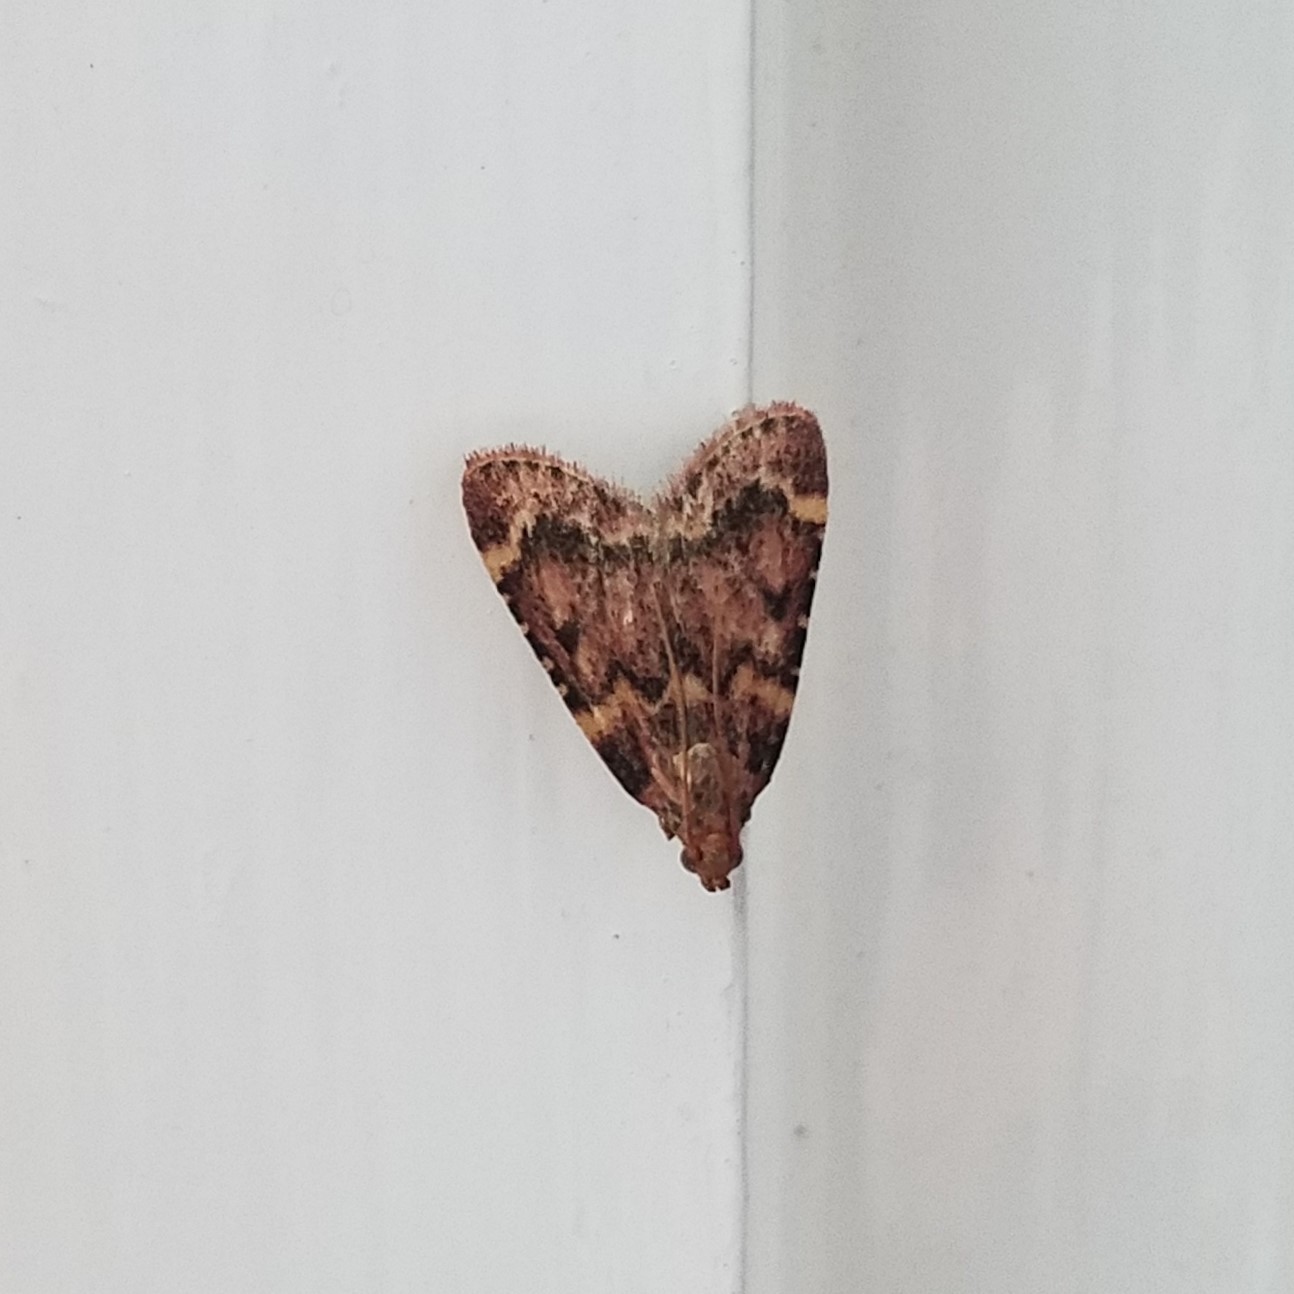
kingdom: Animalia
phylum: Arthropoda
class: Insecta
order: Lepidoptera
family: Pyralidae
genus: Aglossa
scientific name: Aglossa disciferalis
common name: Pink-masked pyralid moth
